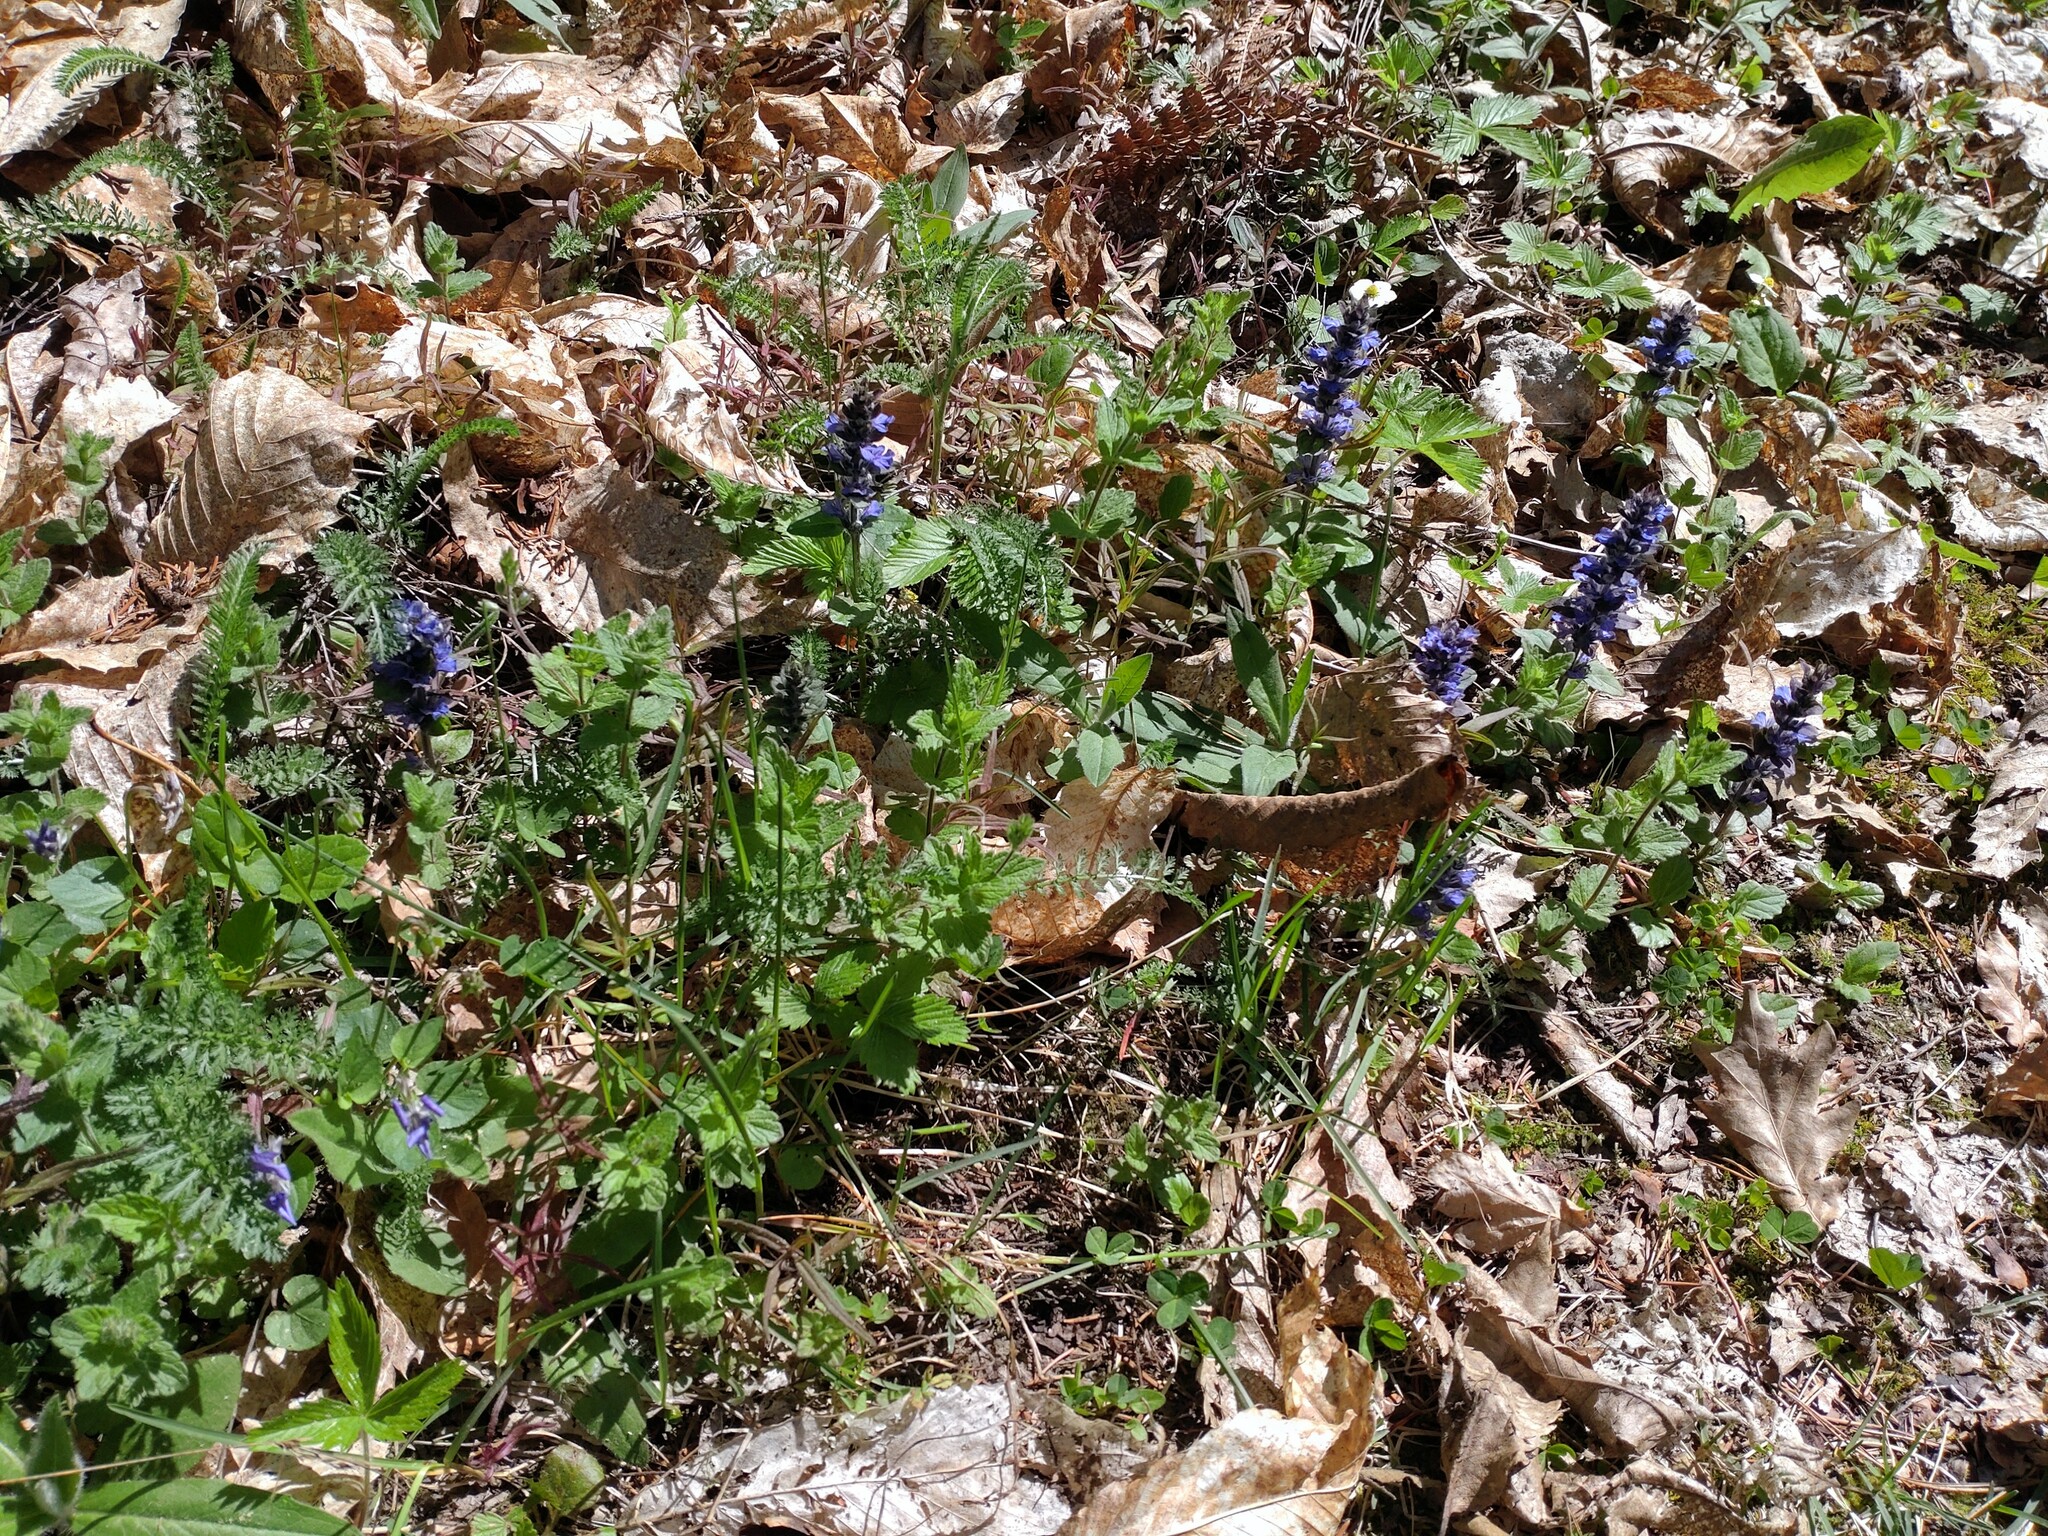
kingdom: Plantae
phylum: Tracheophyta
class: Magnoliopsida
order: Lamiales
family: Lamiaceae
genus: Ajuga
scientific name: Ajuga reptans
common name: Bugle
